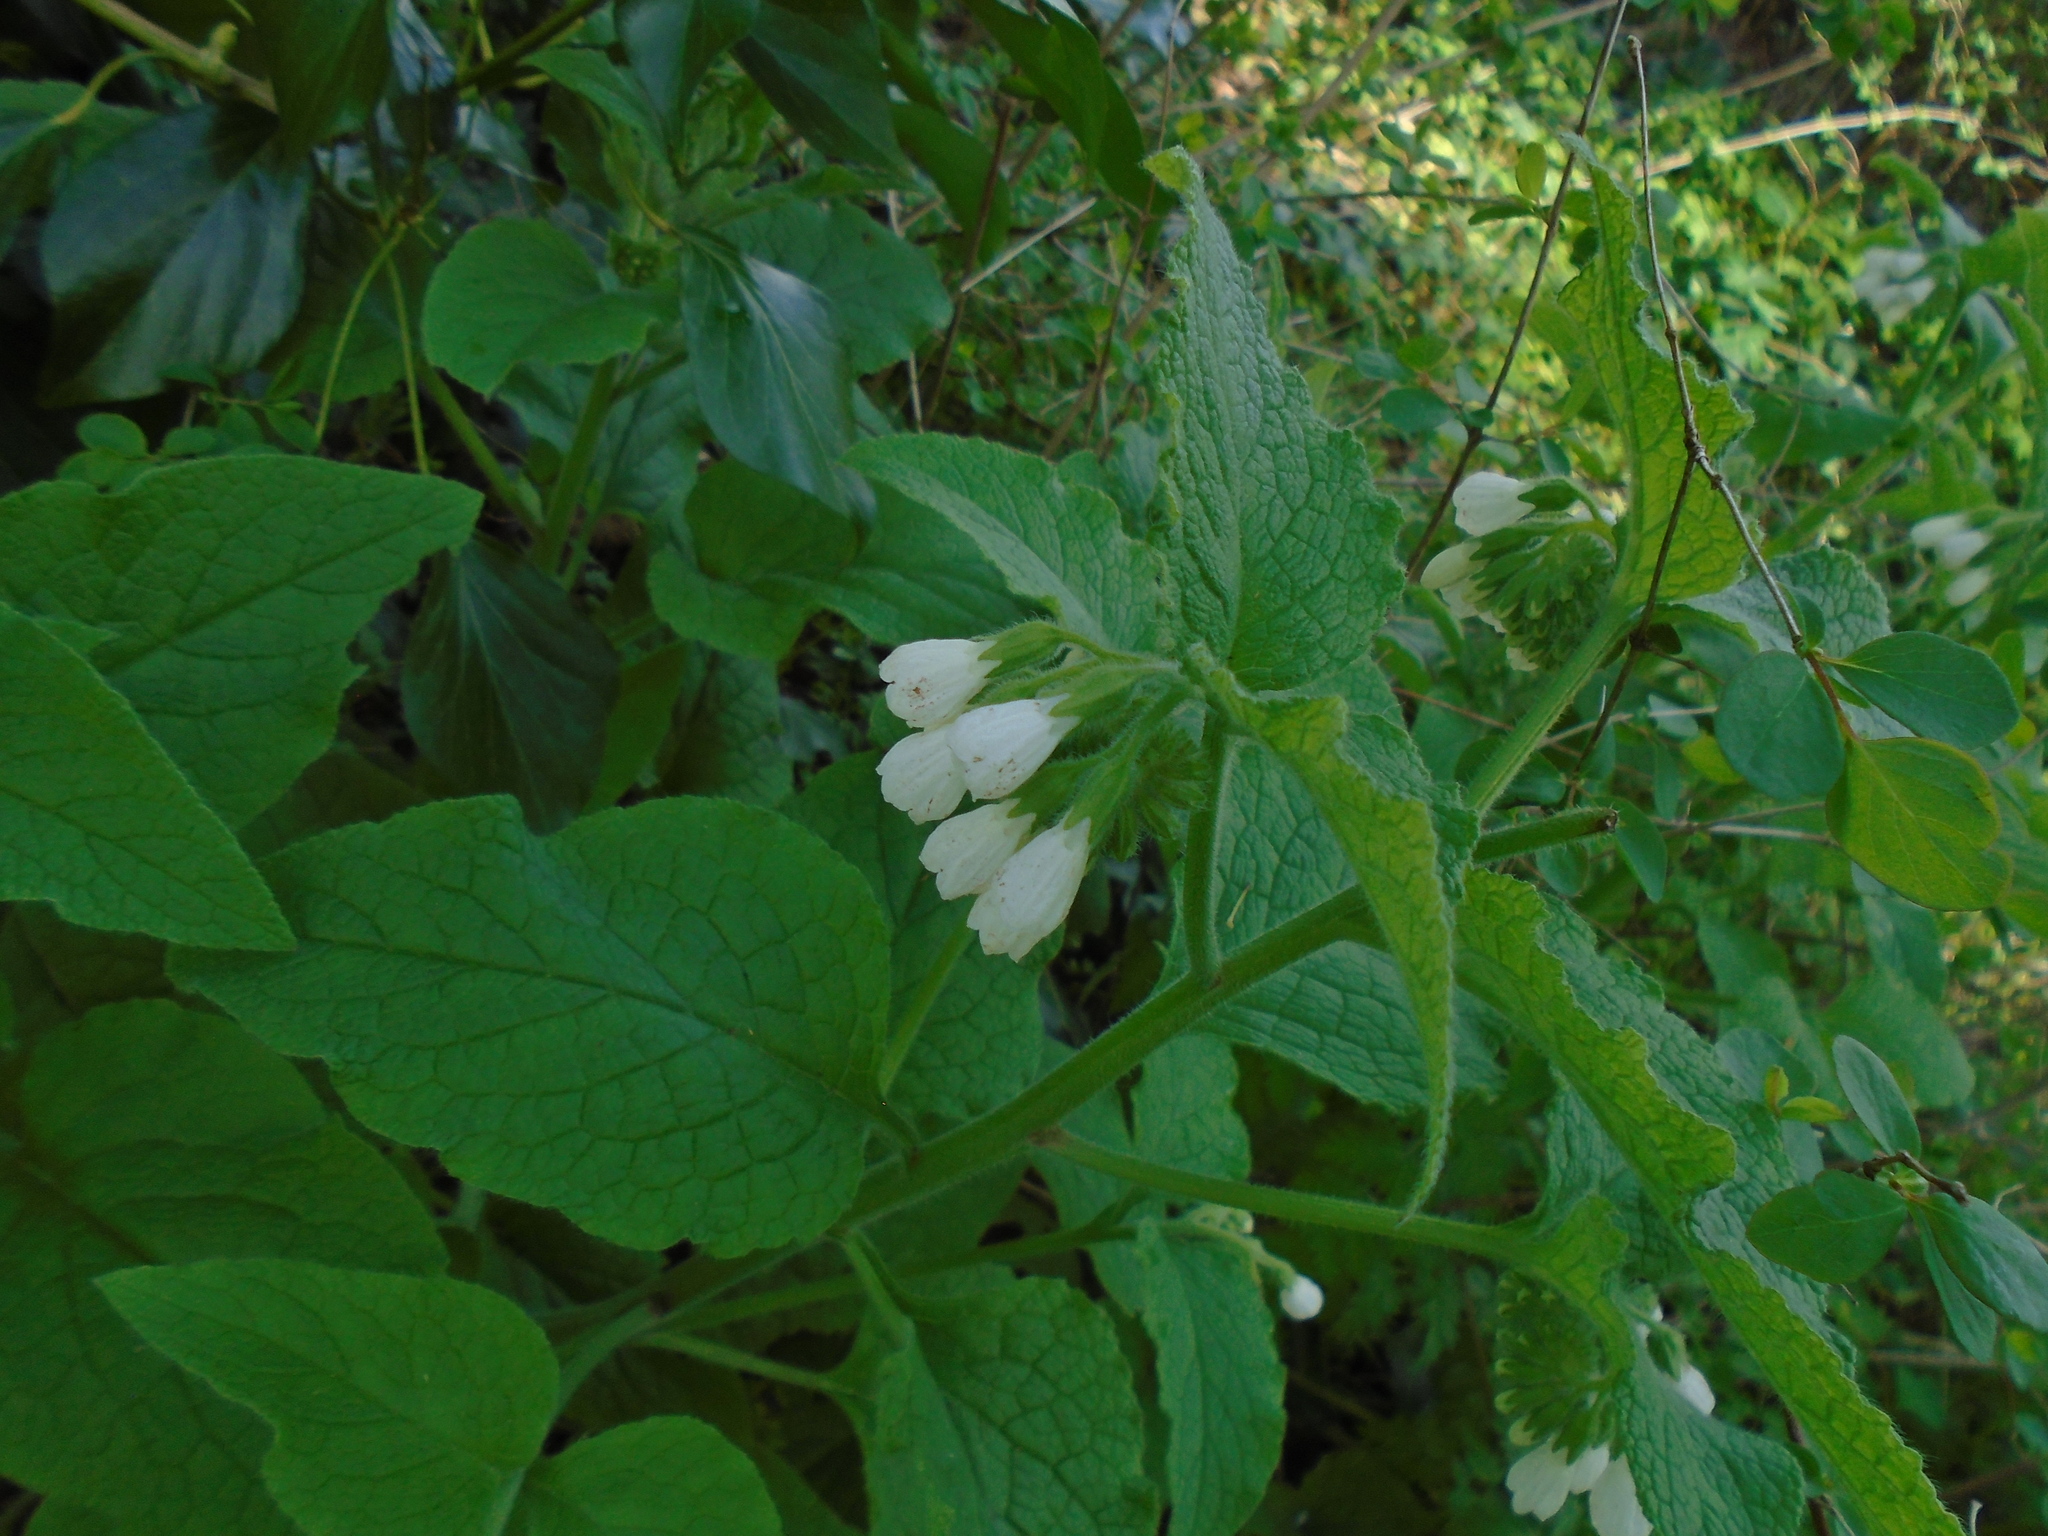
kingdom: Plantae
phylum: Tracheophyta
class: Magnoliopsida
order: Boraginales
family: Boraginaceae
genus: Symphytum
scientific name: Symphytum orientale
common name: White comfrey
